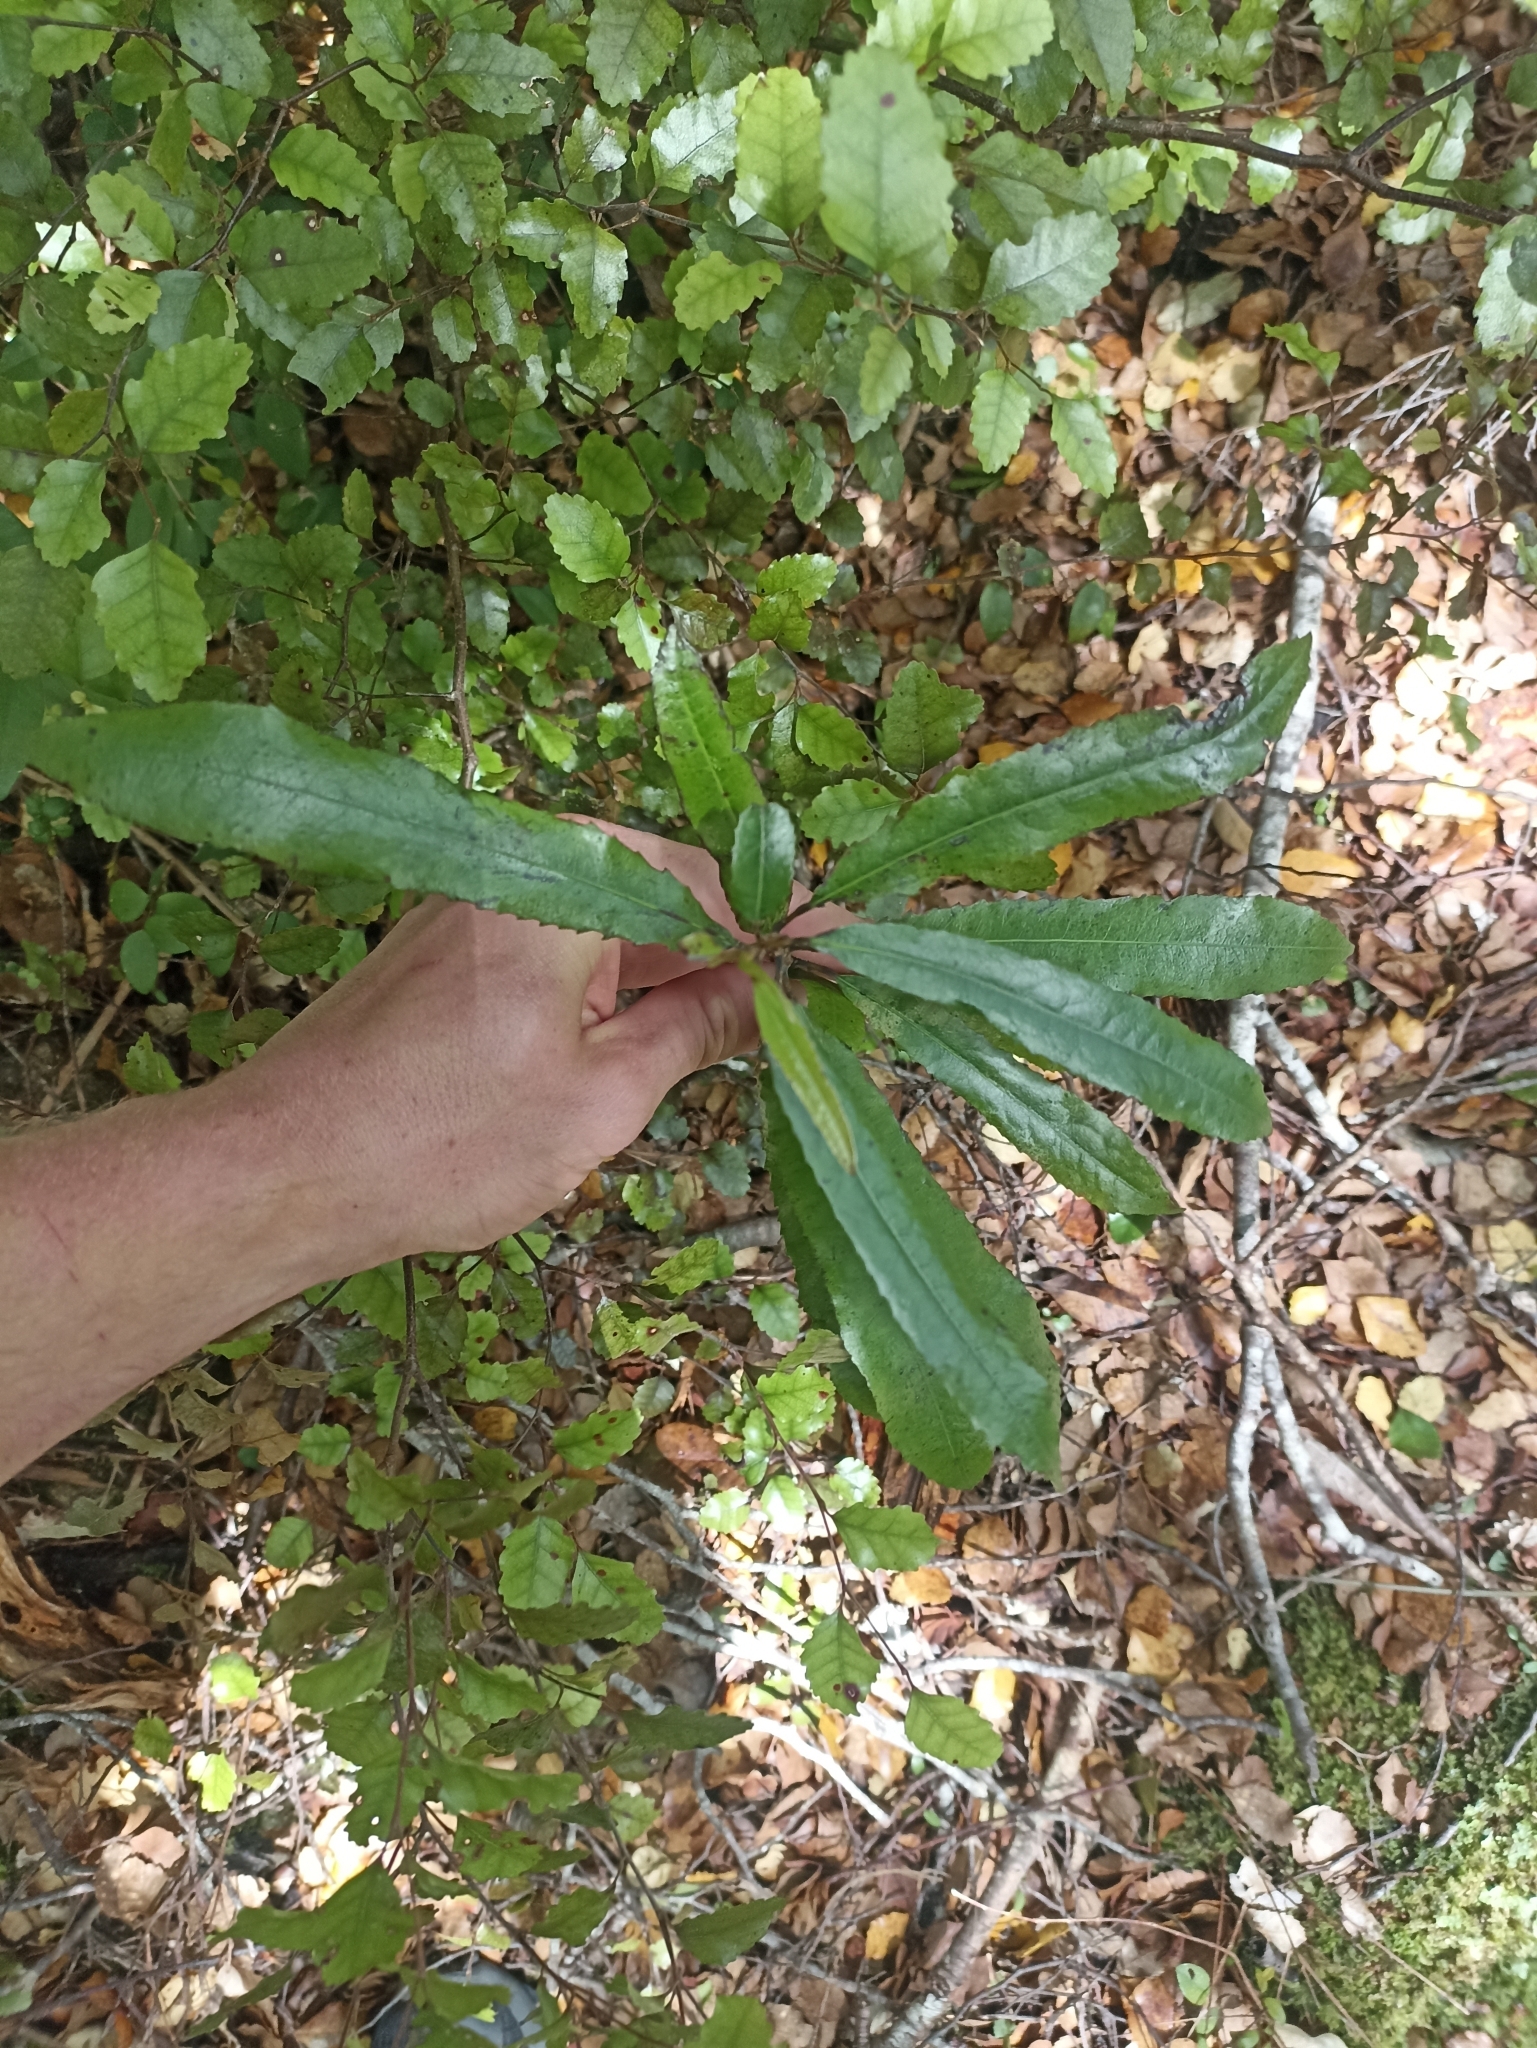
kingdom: Plantae
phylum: Tracheophyta
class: Magnoliopsida
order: Oxalidales
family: Elaeocarpaceae
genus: Elaeocarpus
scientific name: Elaeocarpus dentatus
